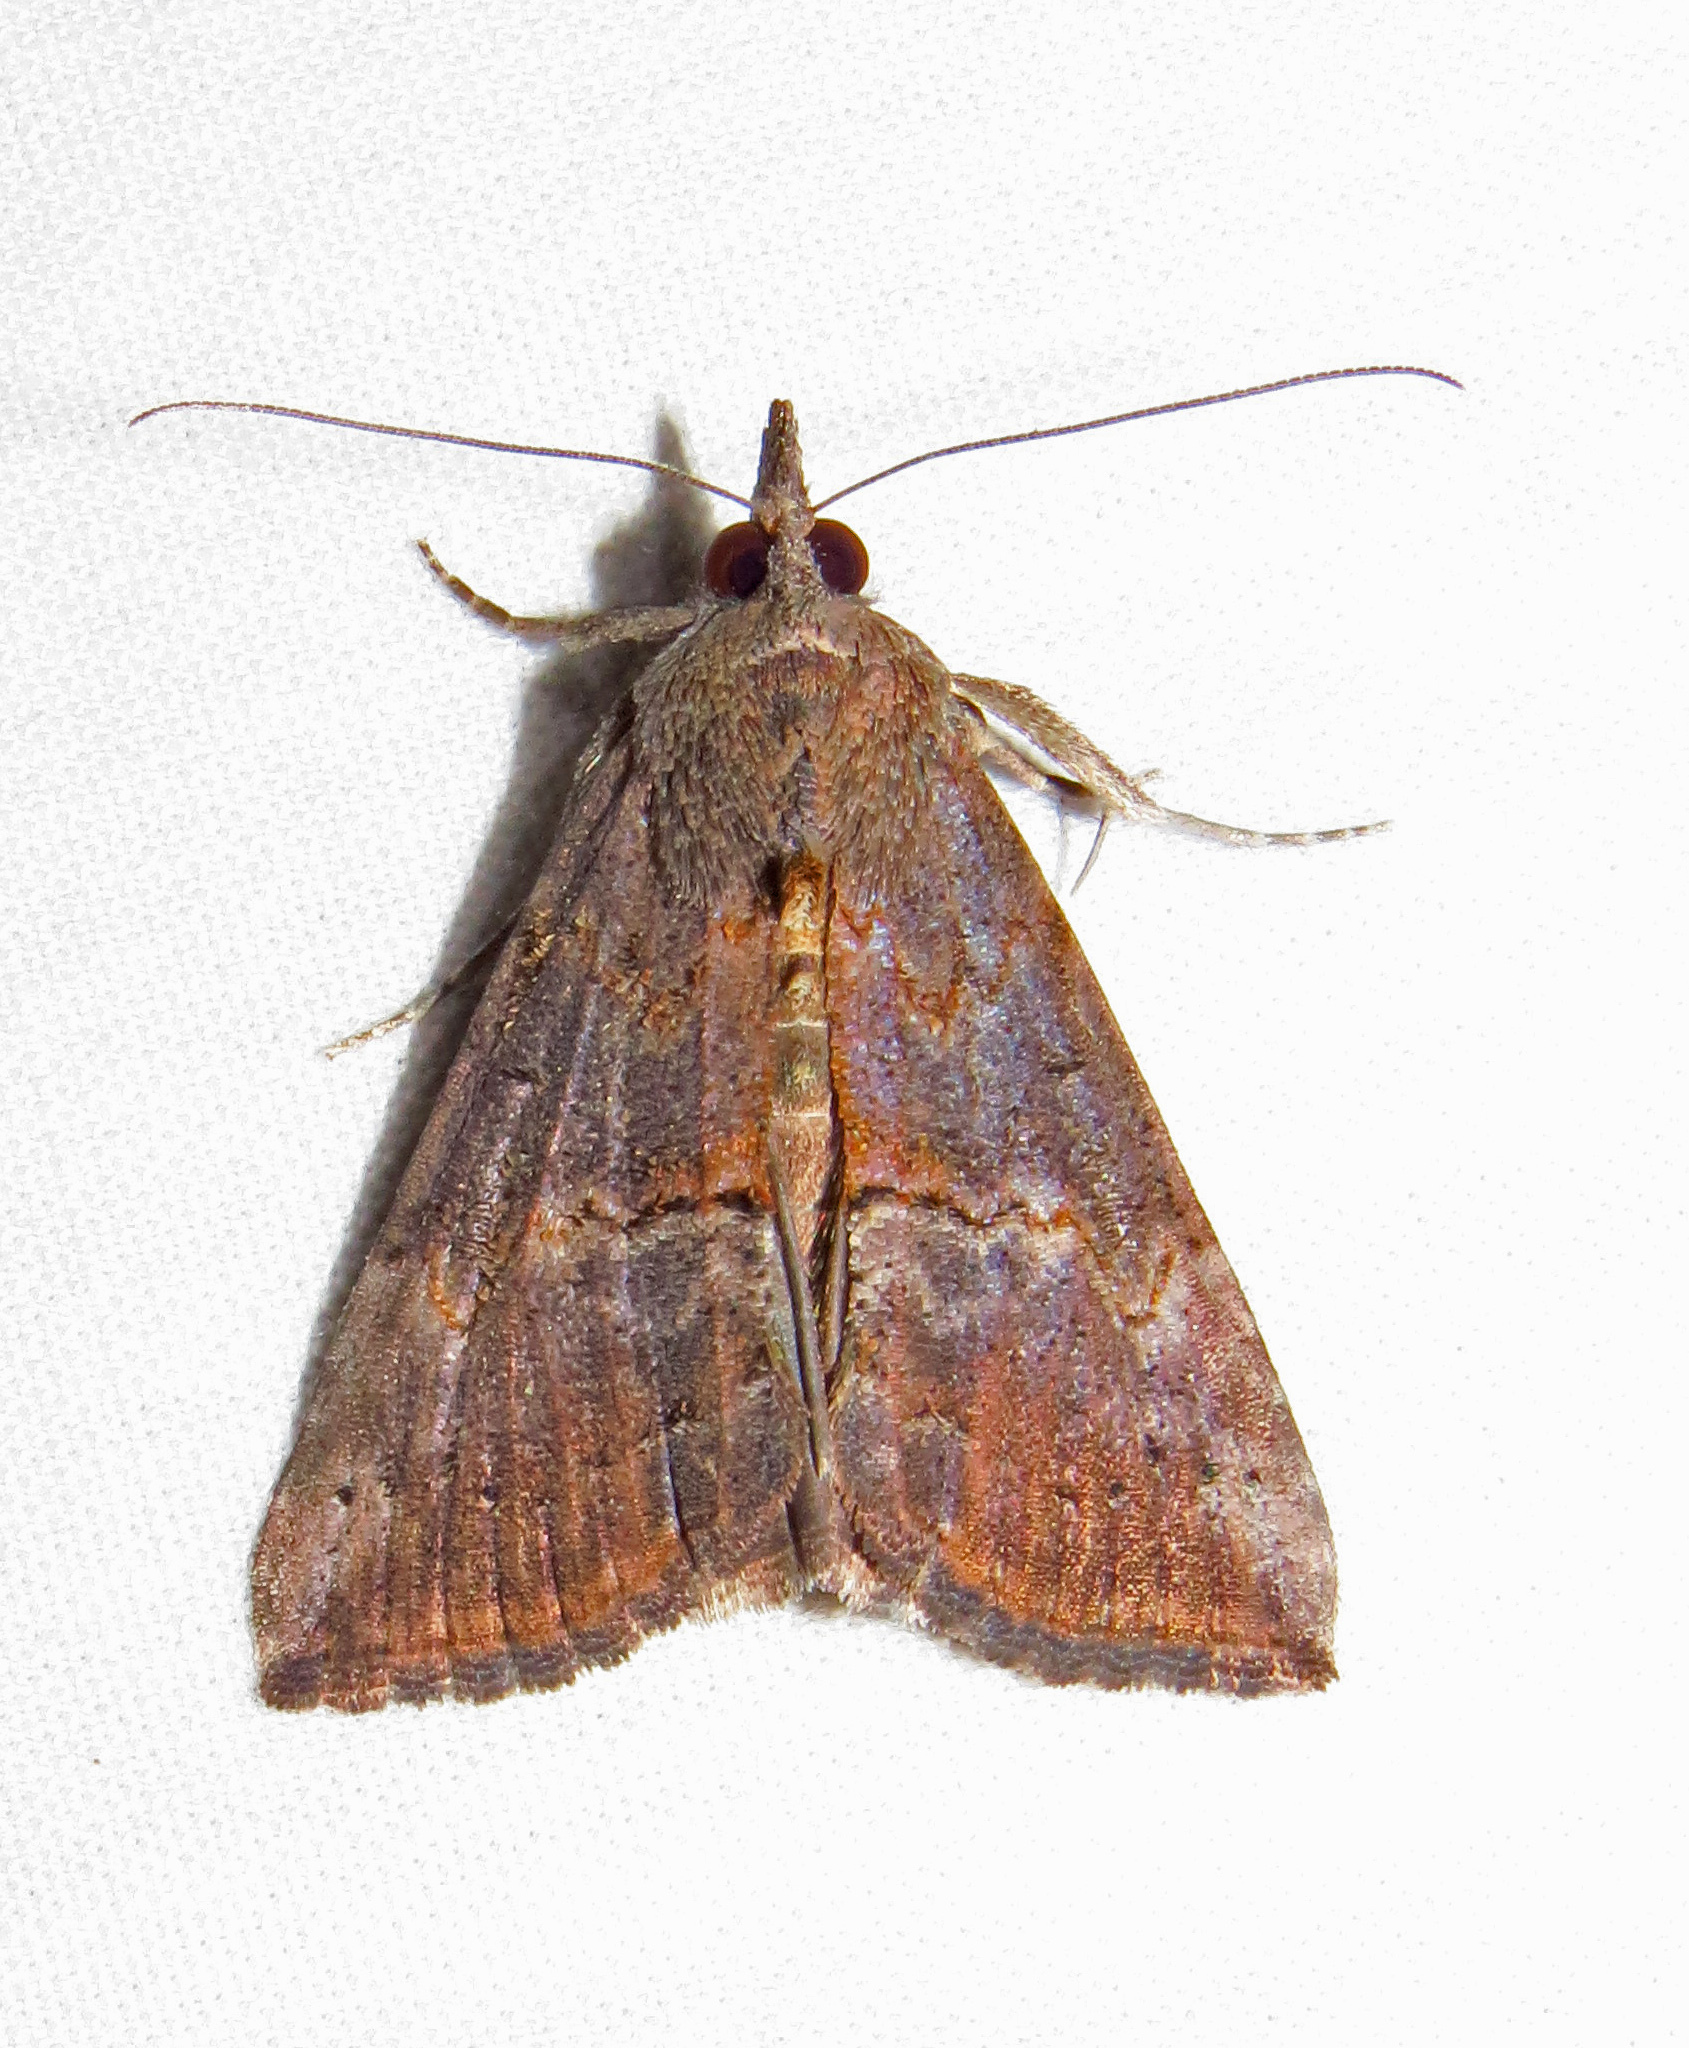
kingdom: Animalia
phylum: Arthropoda
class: Insecta
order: Lepidoptera
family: Erebidae
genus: Hypena
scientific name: Hypena scabra
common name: Green cloverworm
